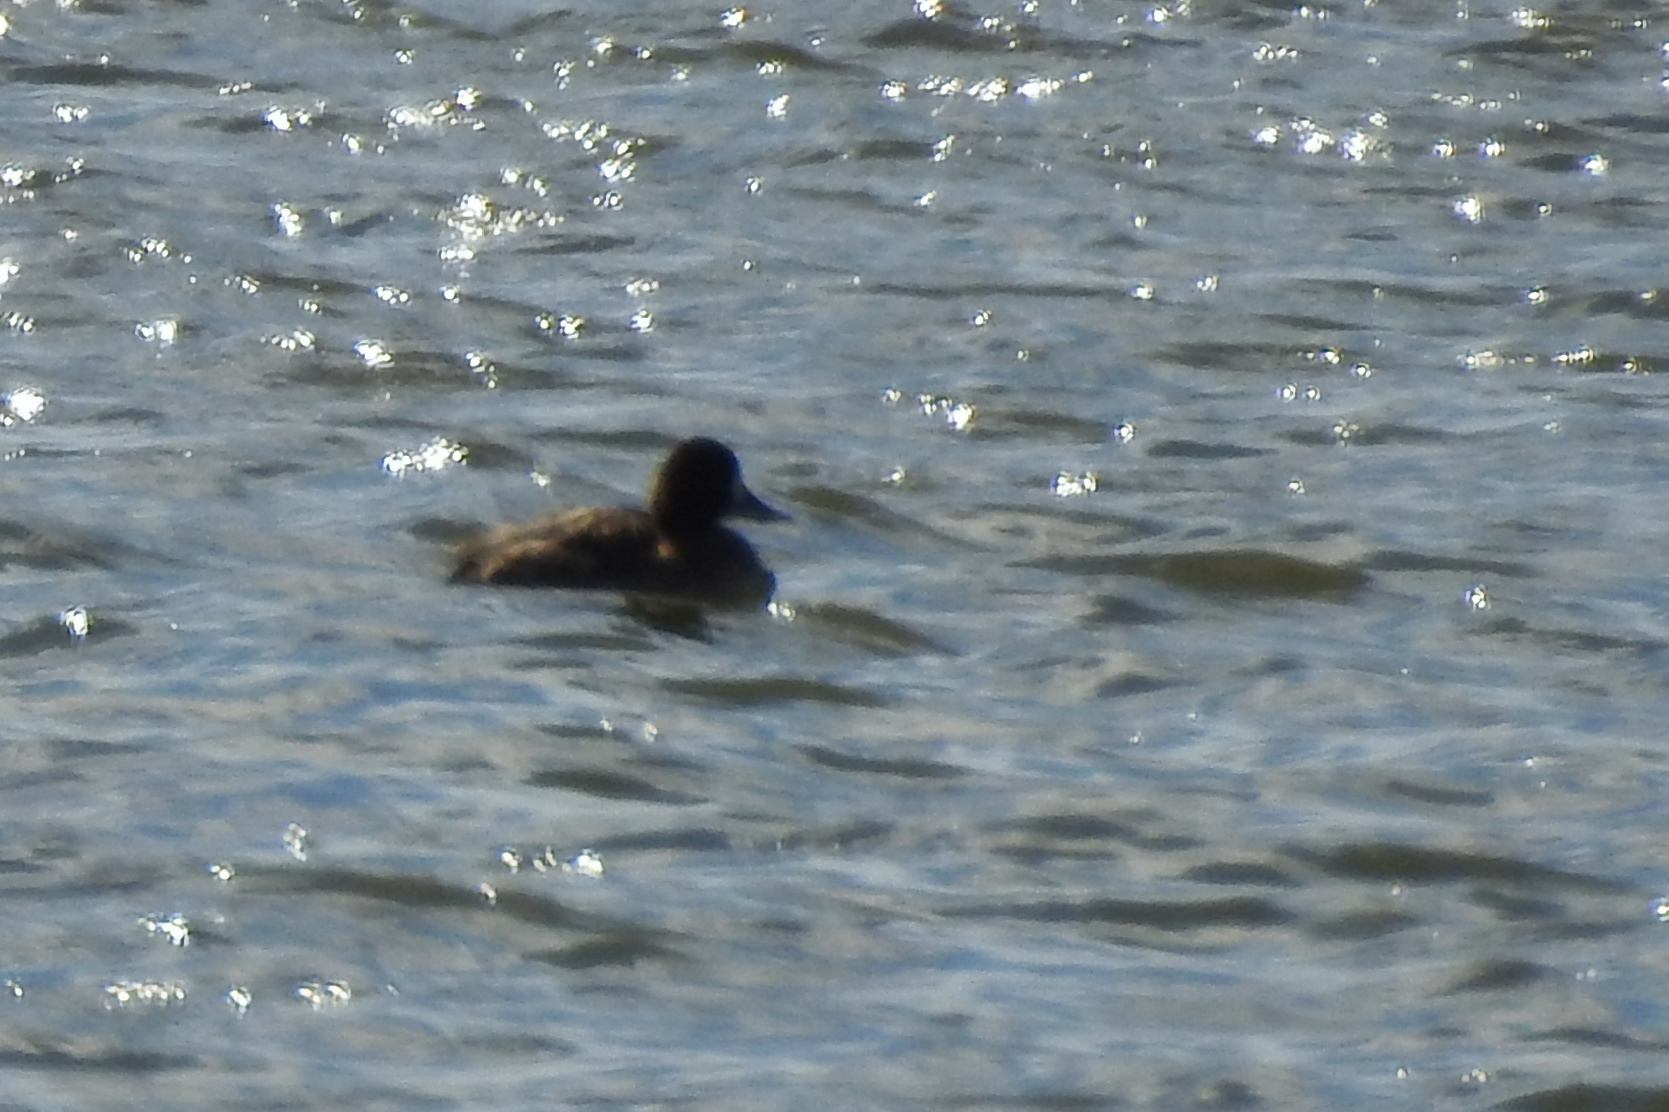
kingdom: Animalia
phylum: Chordata
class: Aves
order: Anseriformes
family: Anatidae
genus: Aythya
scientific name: Aythya affinis
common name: Lesser scaup
